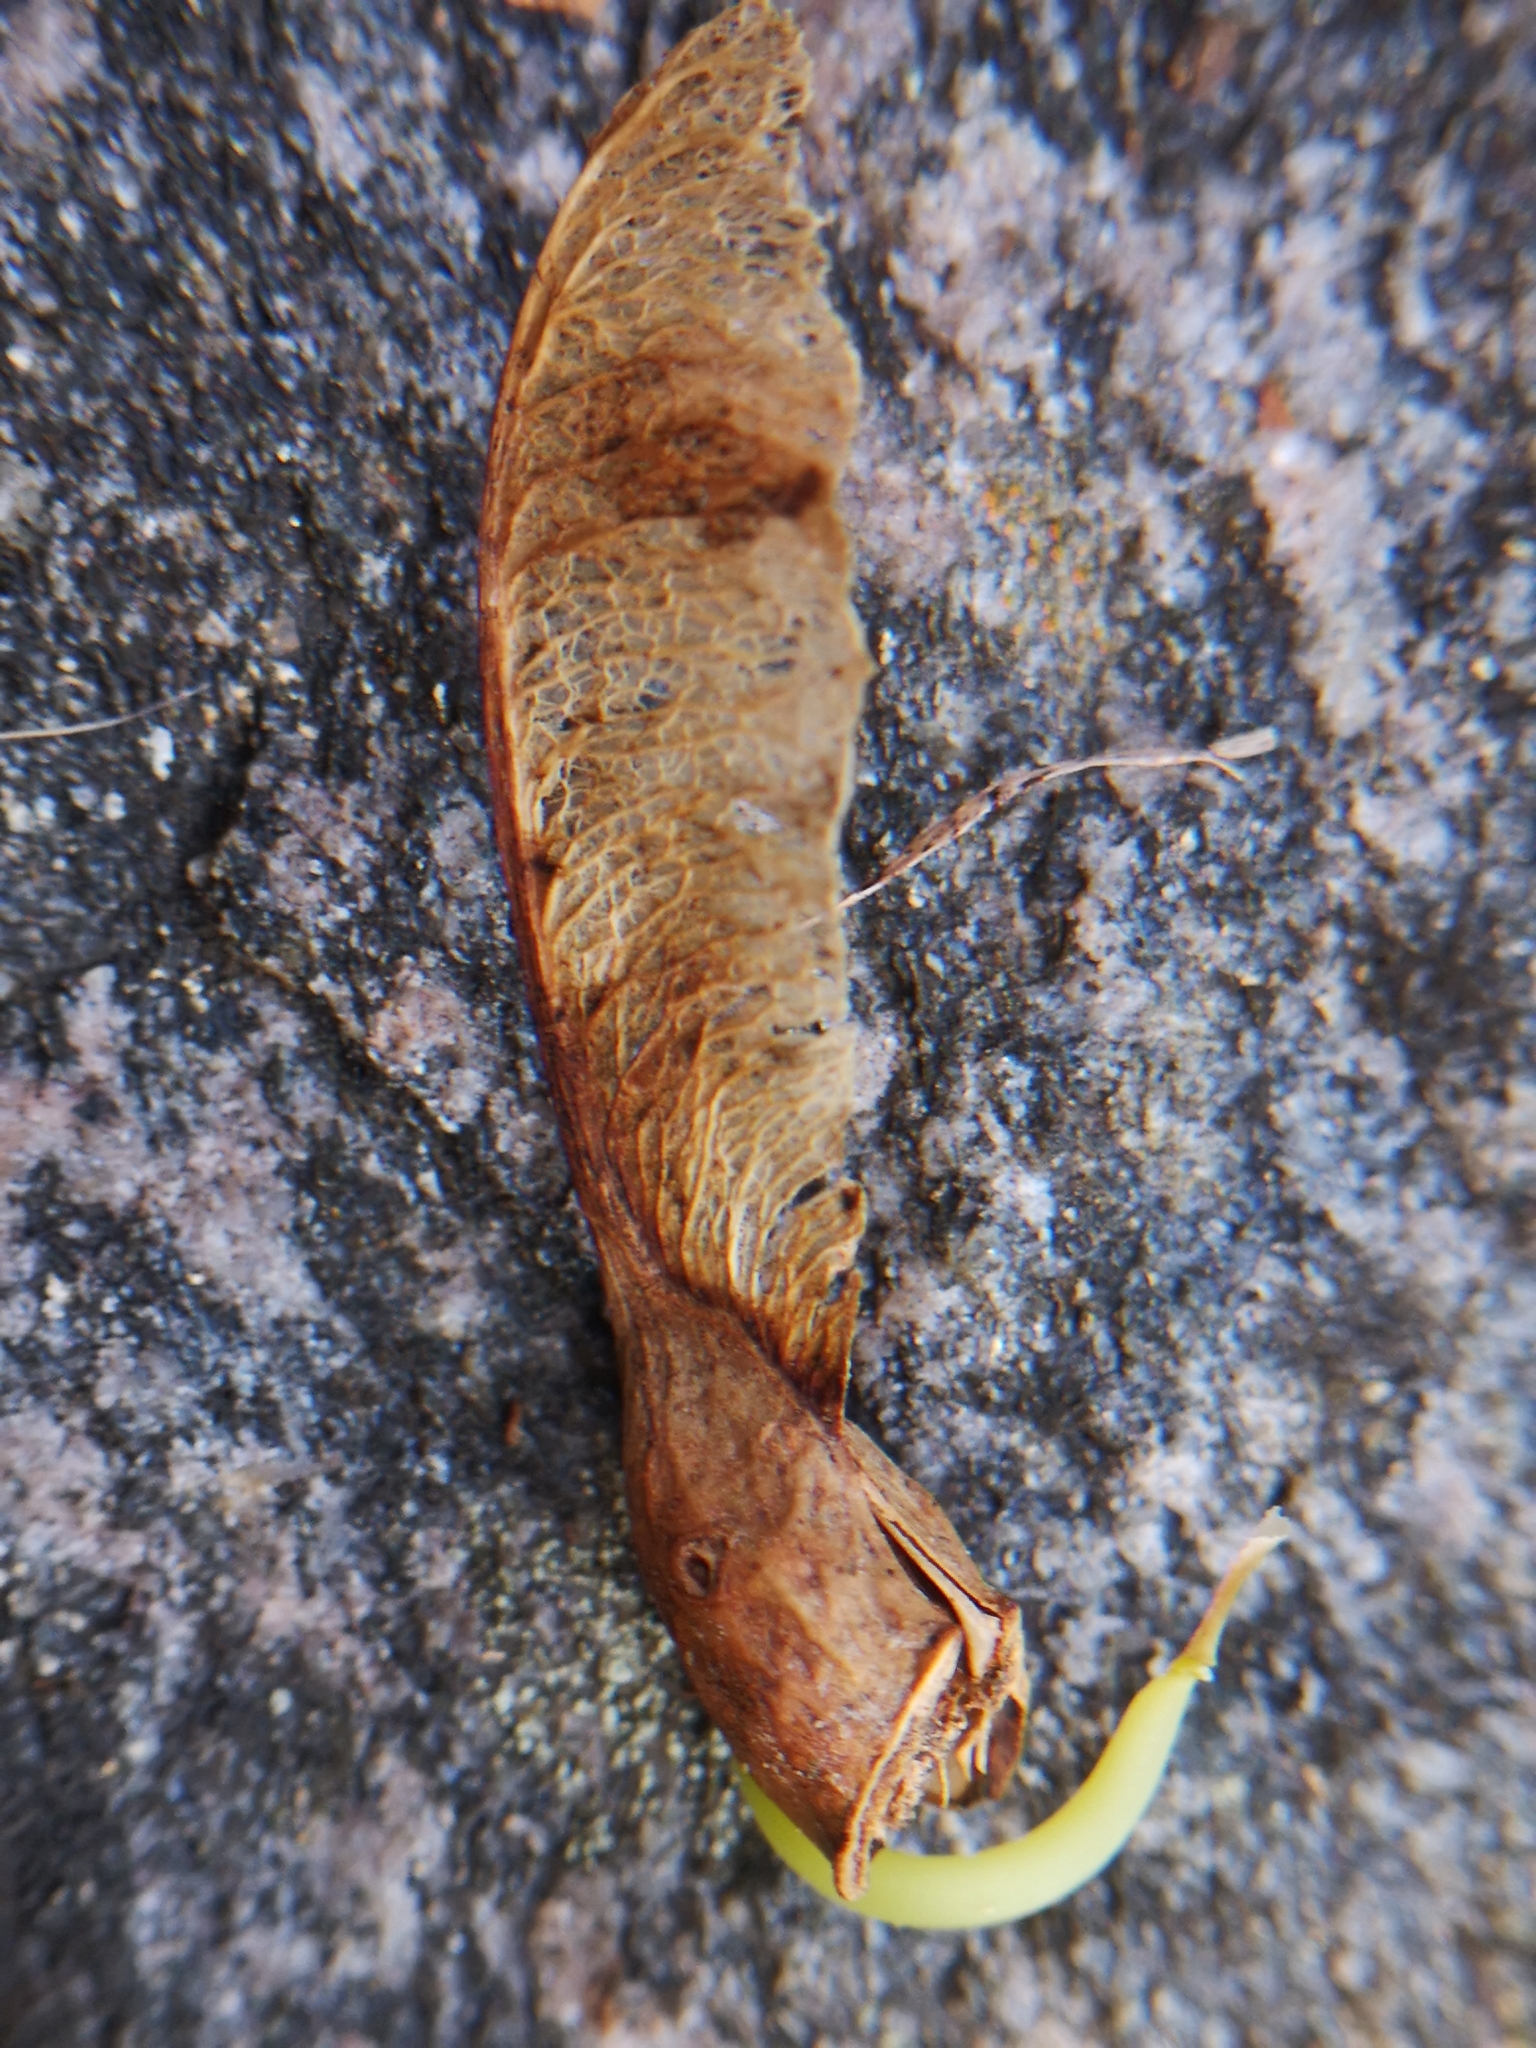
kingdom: Plantae
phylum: Tracheophyta
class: Magnoliopsida
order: Sapindales
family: Sapindaceae
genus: Acer
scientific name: Acer saccharum
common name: Sugar maple
